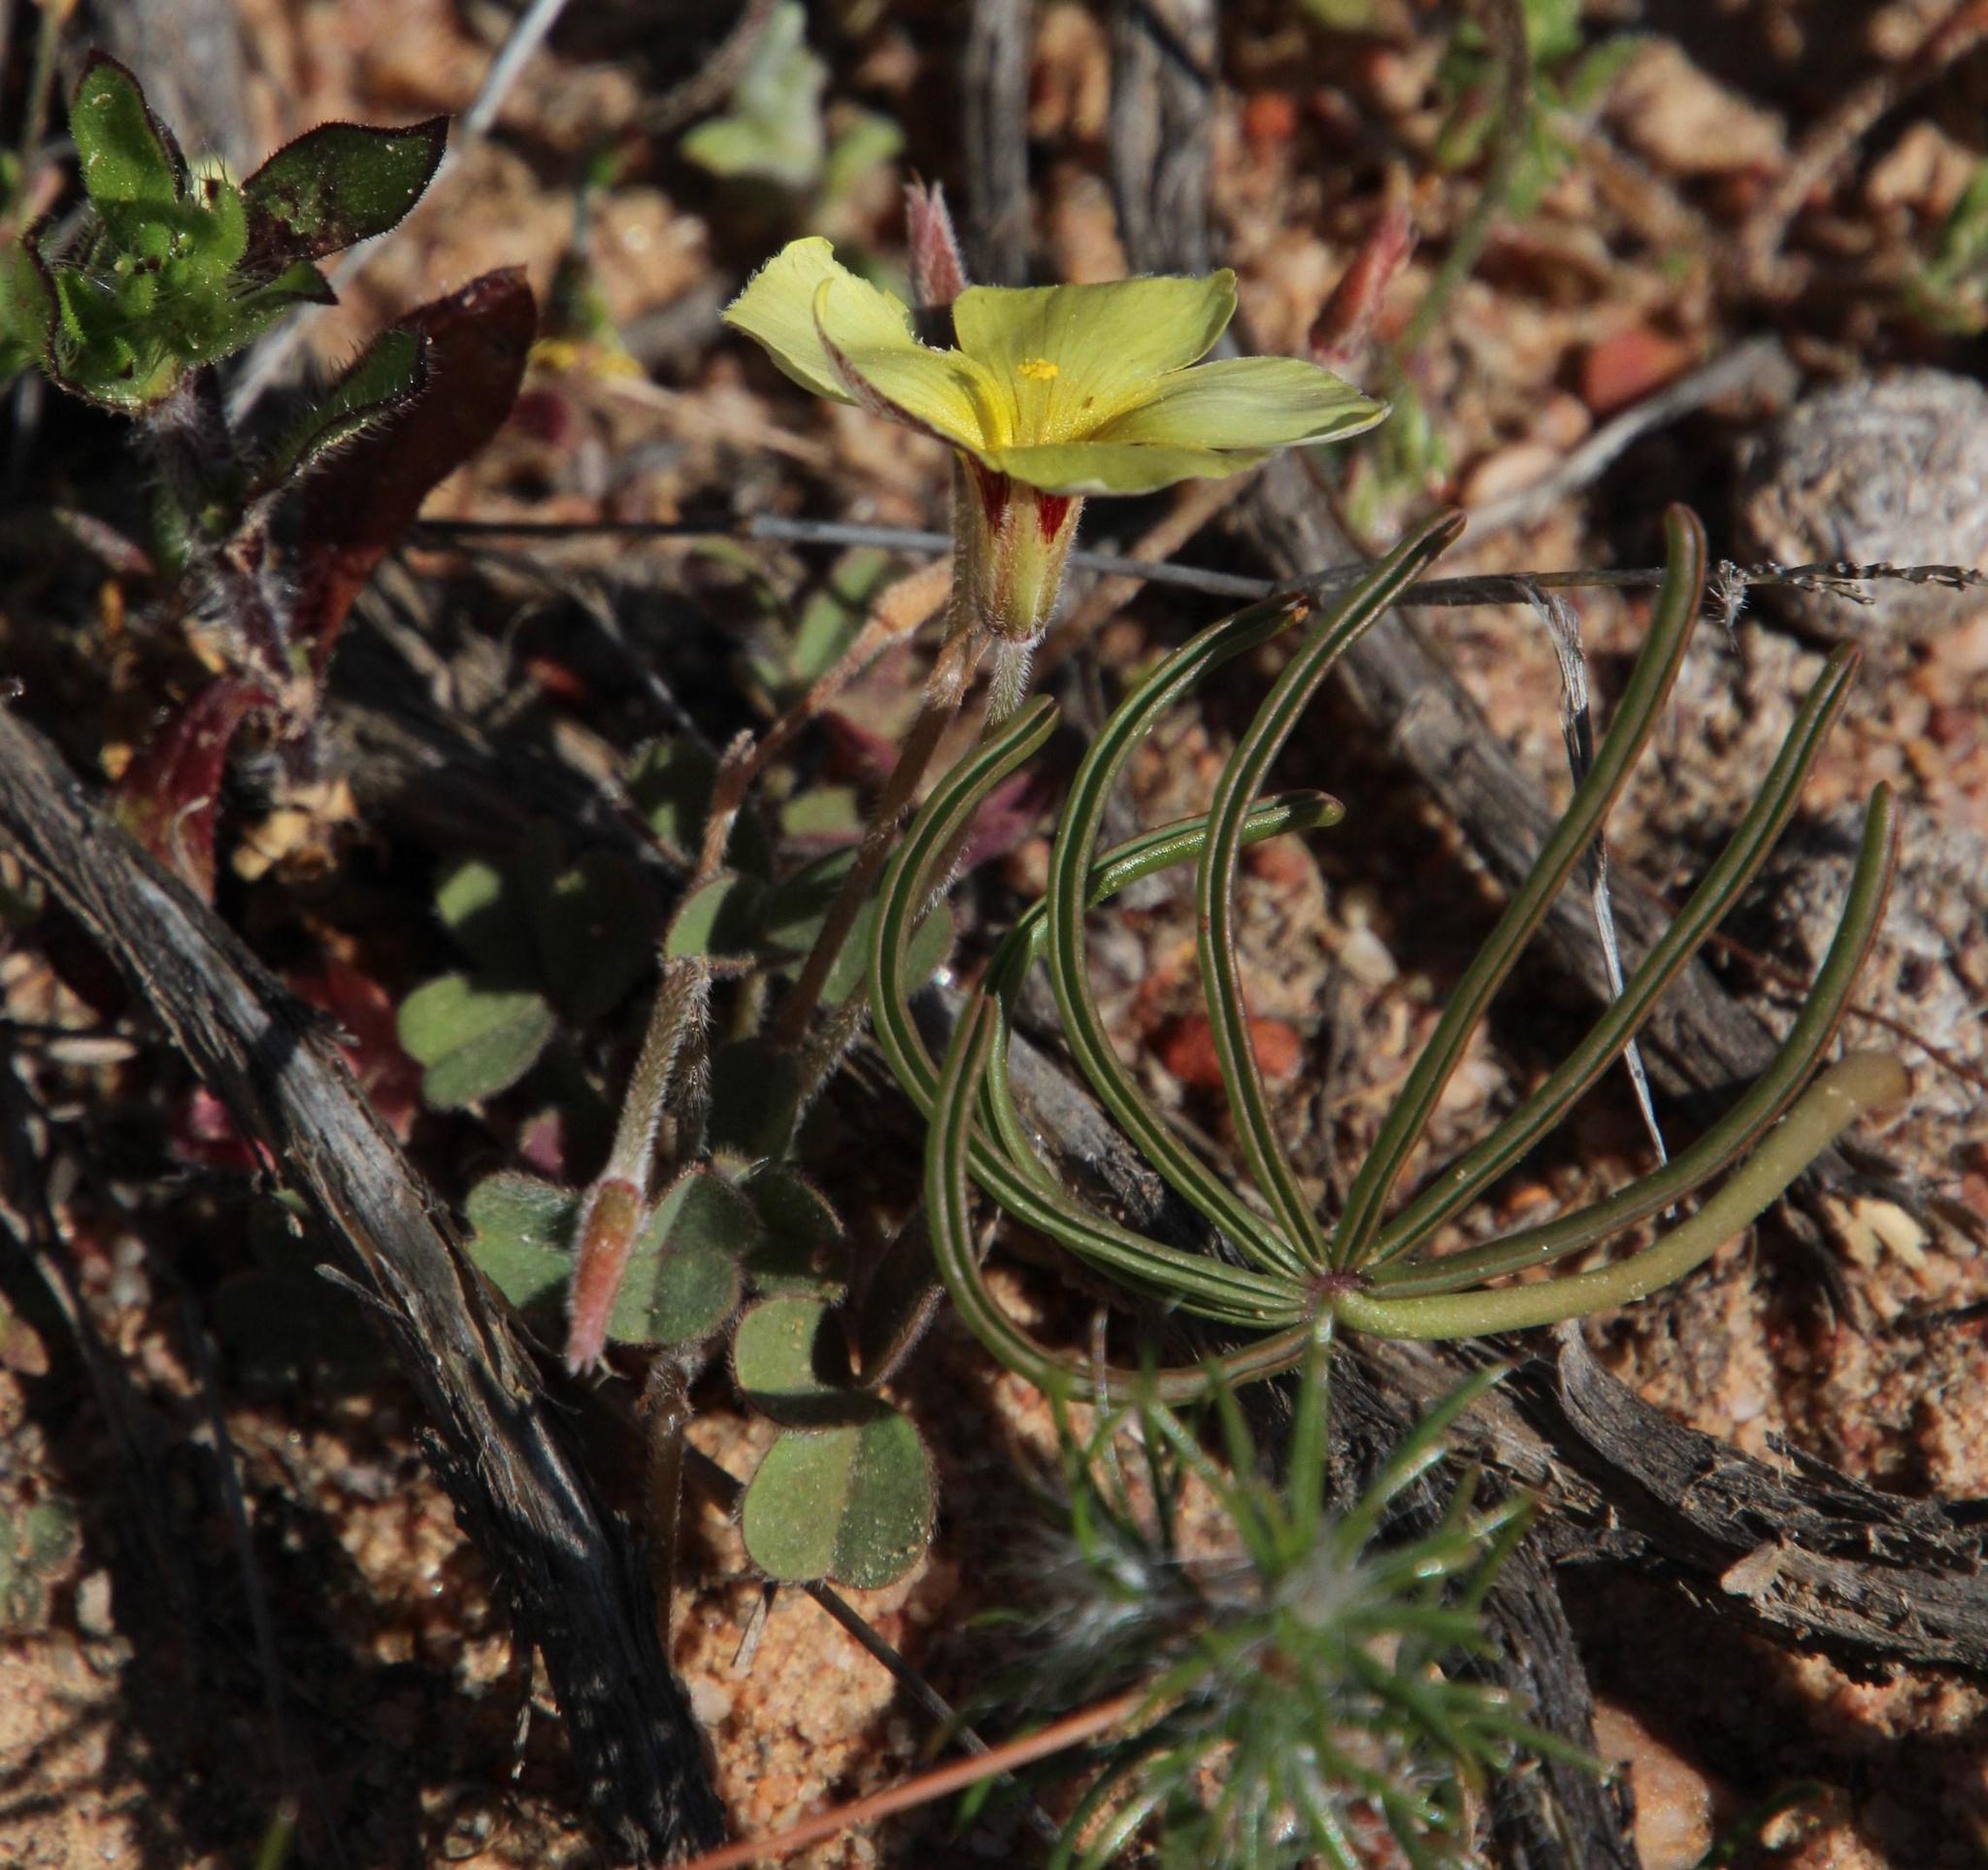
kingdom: Plantae
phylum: Tracheophyta
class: Magnoliopsida
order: Oxalidales
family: Oxalidaceae
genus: Oxalis
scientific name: Oxalis flava
